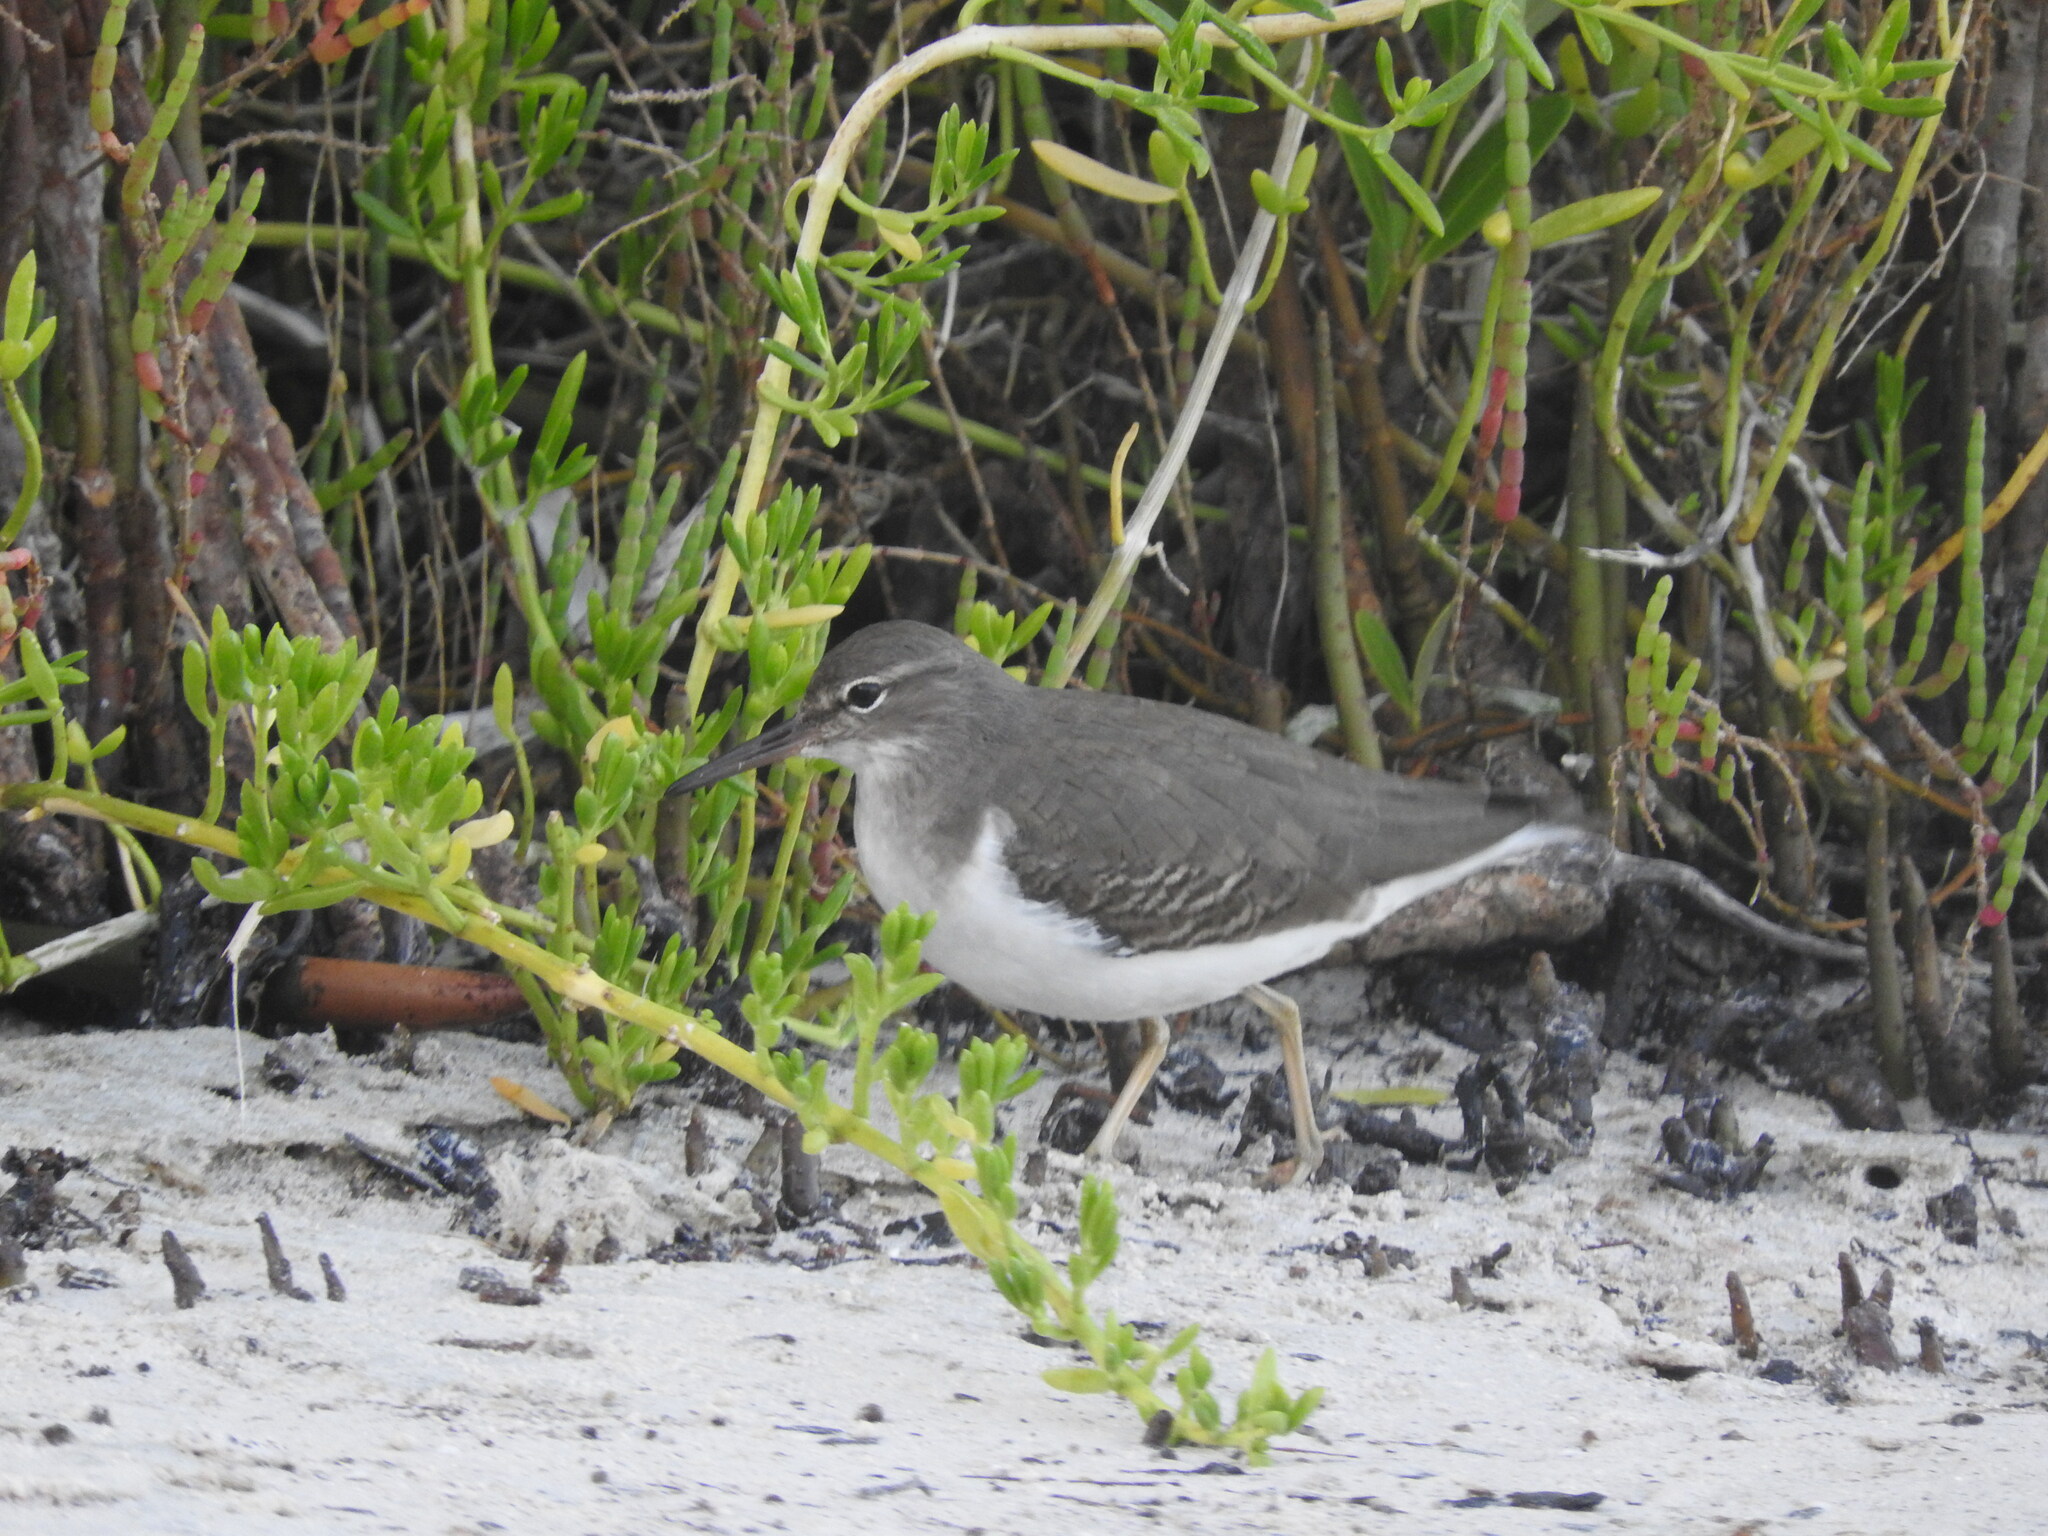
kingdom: Animalia
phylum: Chordata
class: Aves
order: Charadriiformes
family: Scolopacidae
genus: Actitis
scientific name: Actitis macularius
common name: Spotted sandpiper
